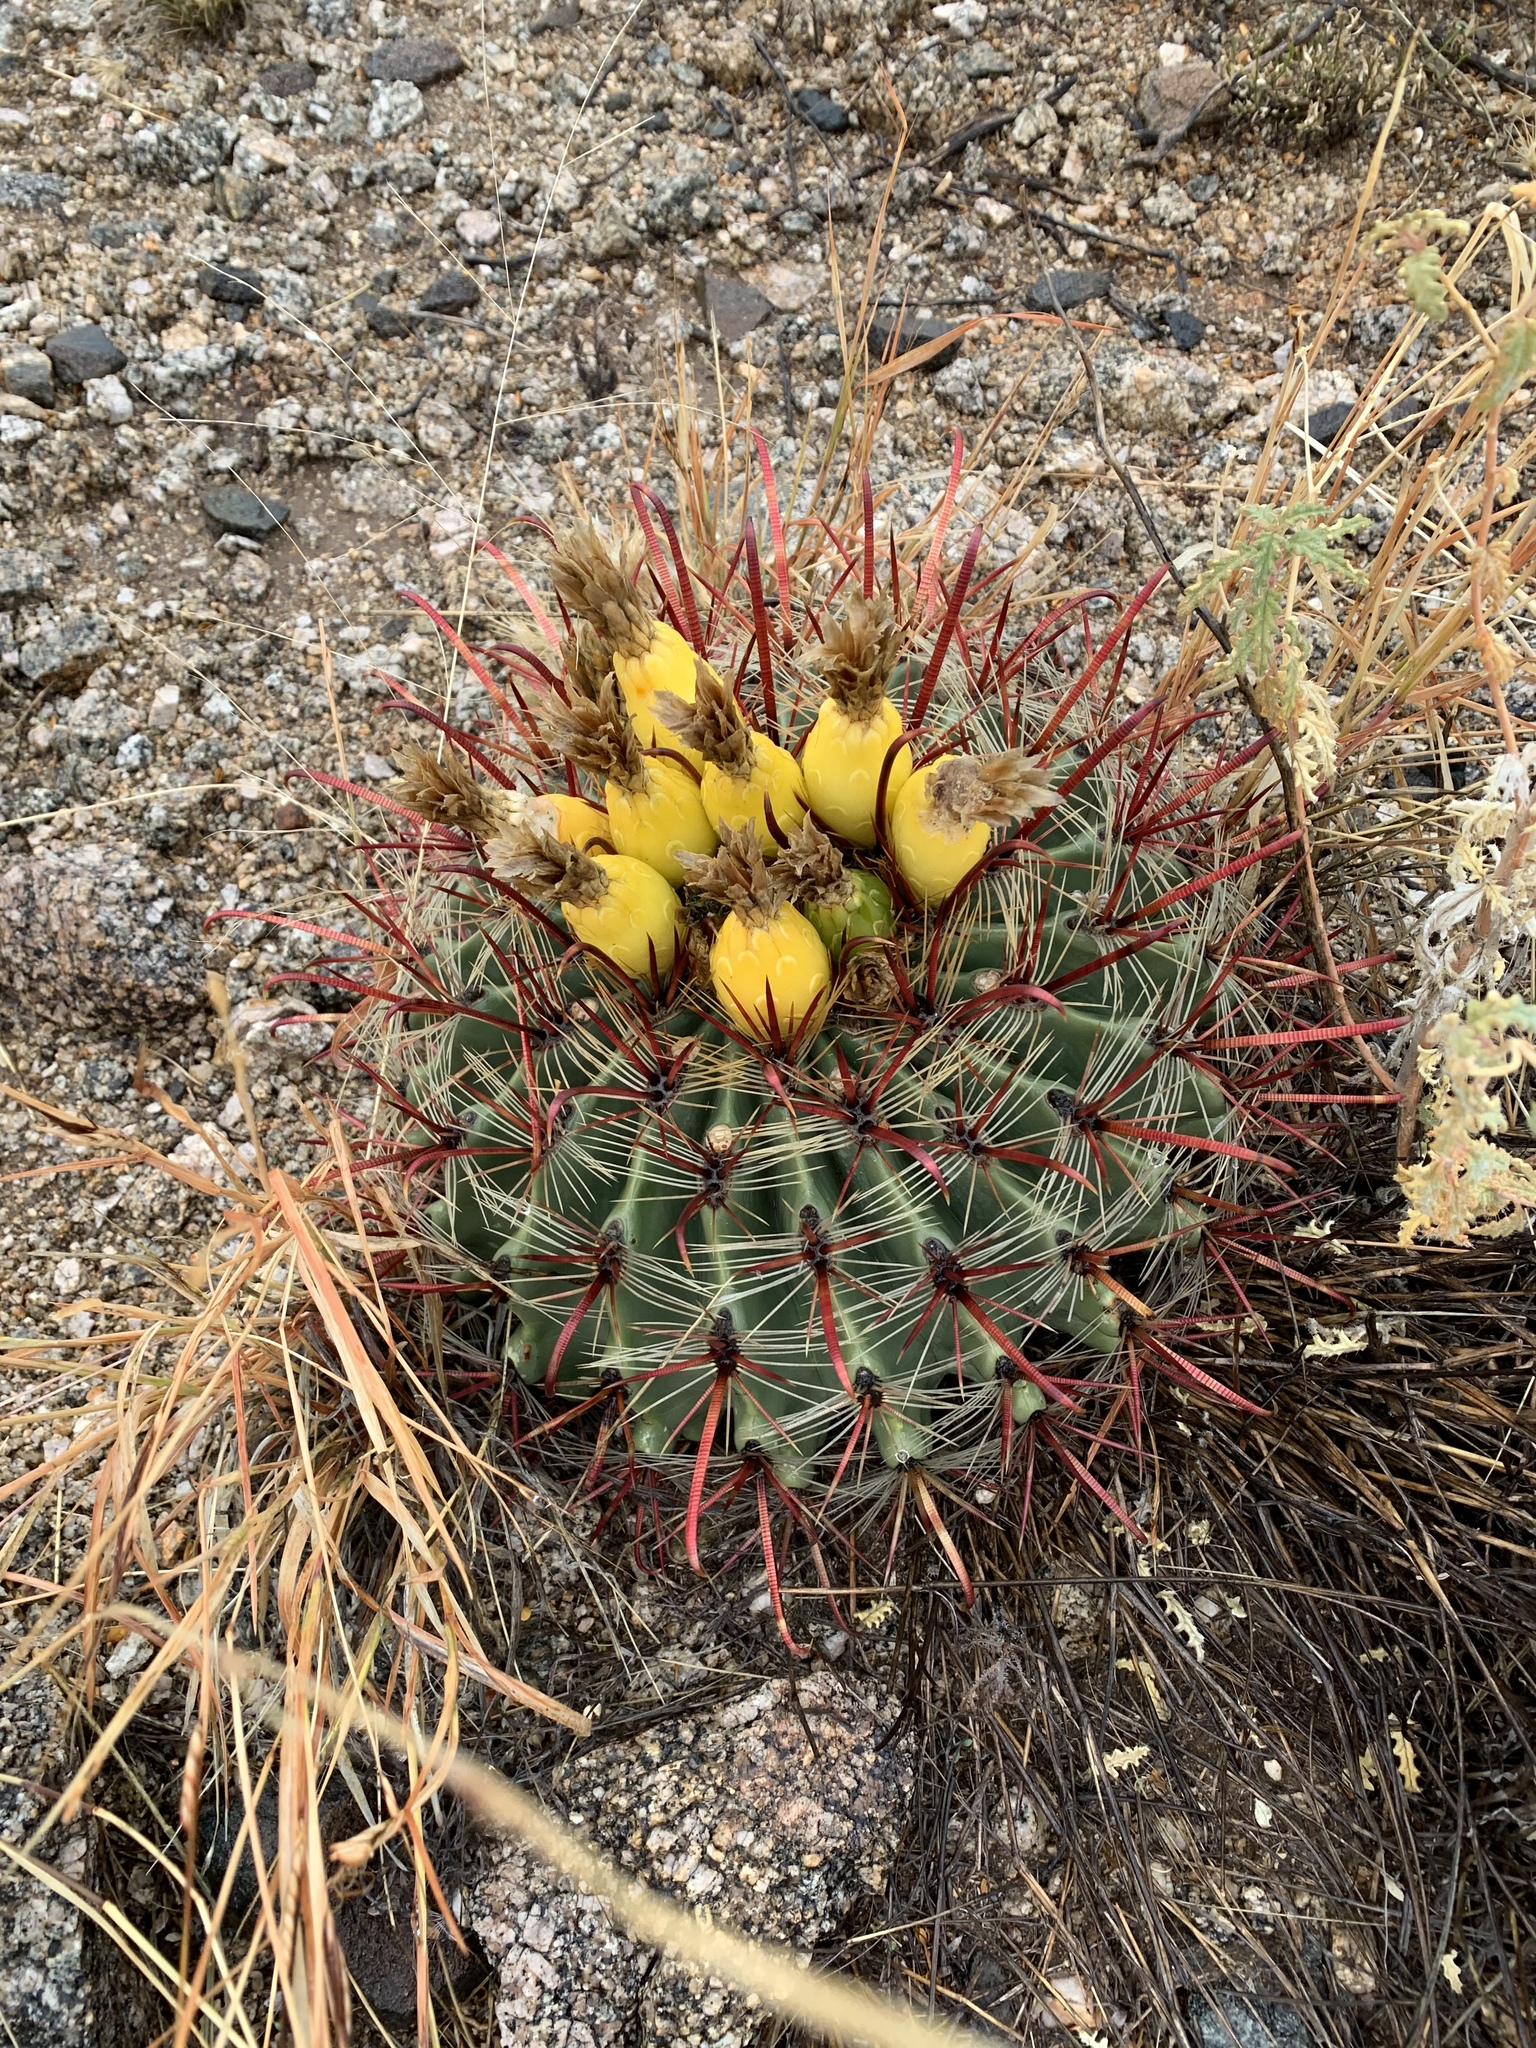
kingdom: Plantae
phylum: Tracheophyta
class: Magnoliopsida
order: Caryophyllales
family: Cactaceae
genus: Ferocactus
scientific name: Ferocactus wislizeni
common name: Candy barrel cactus
